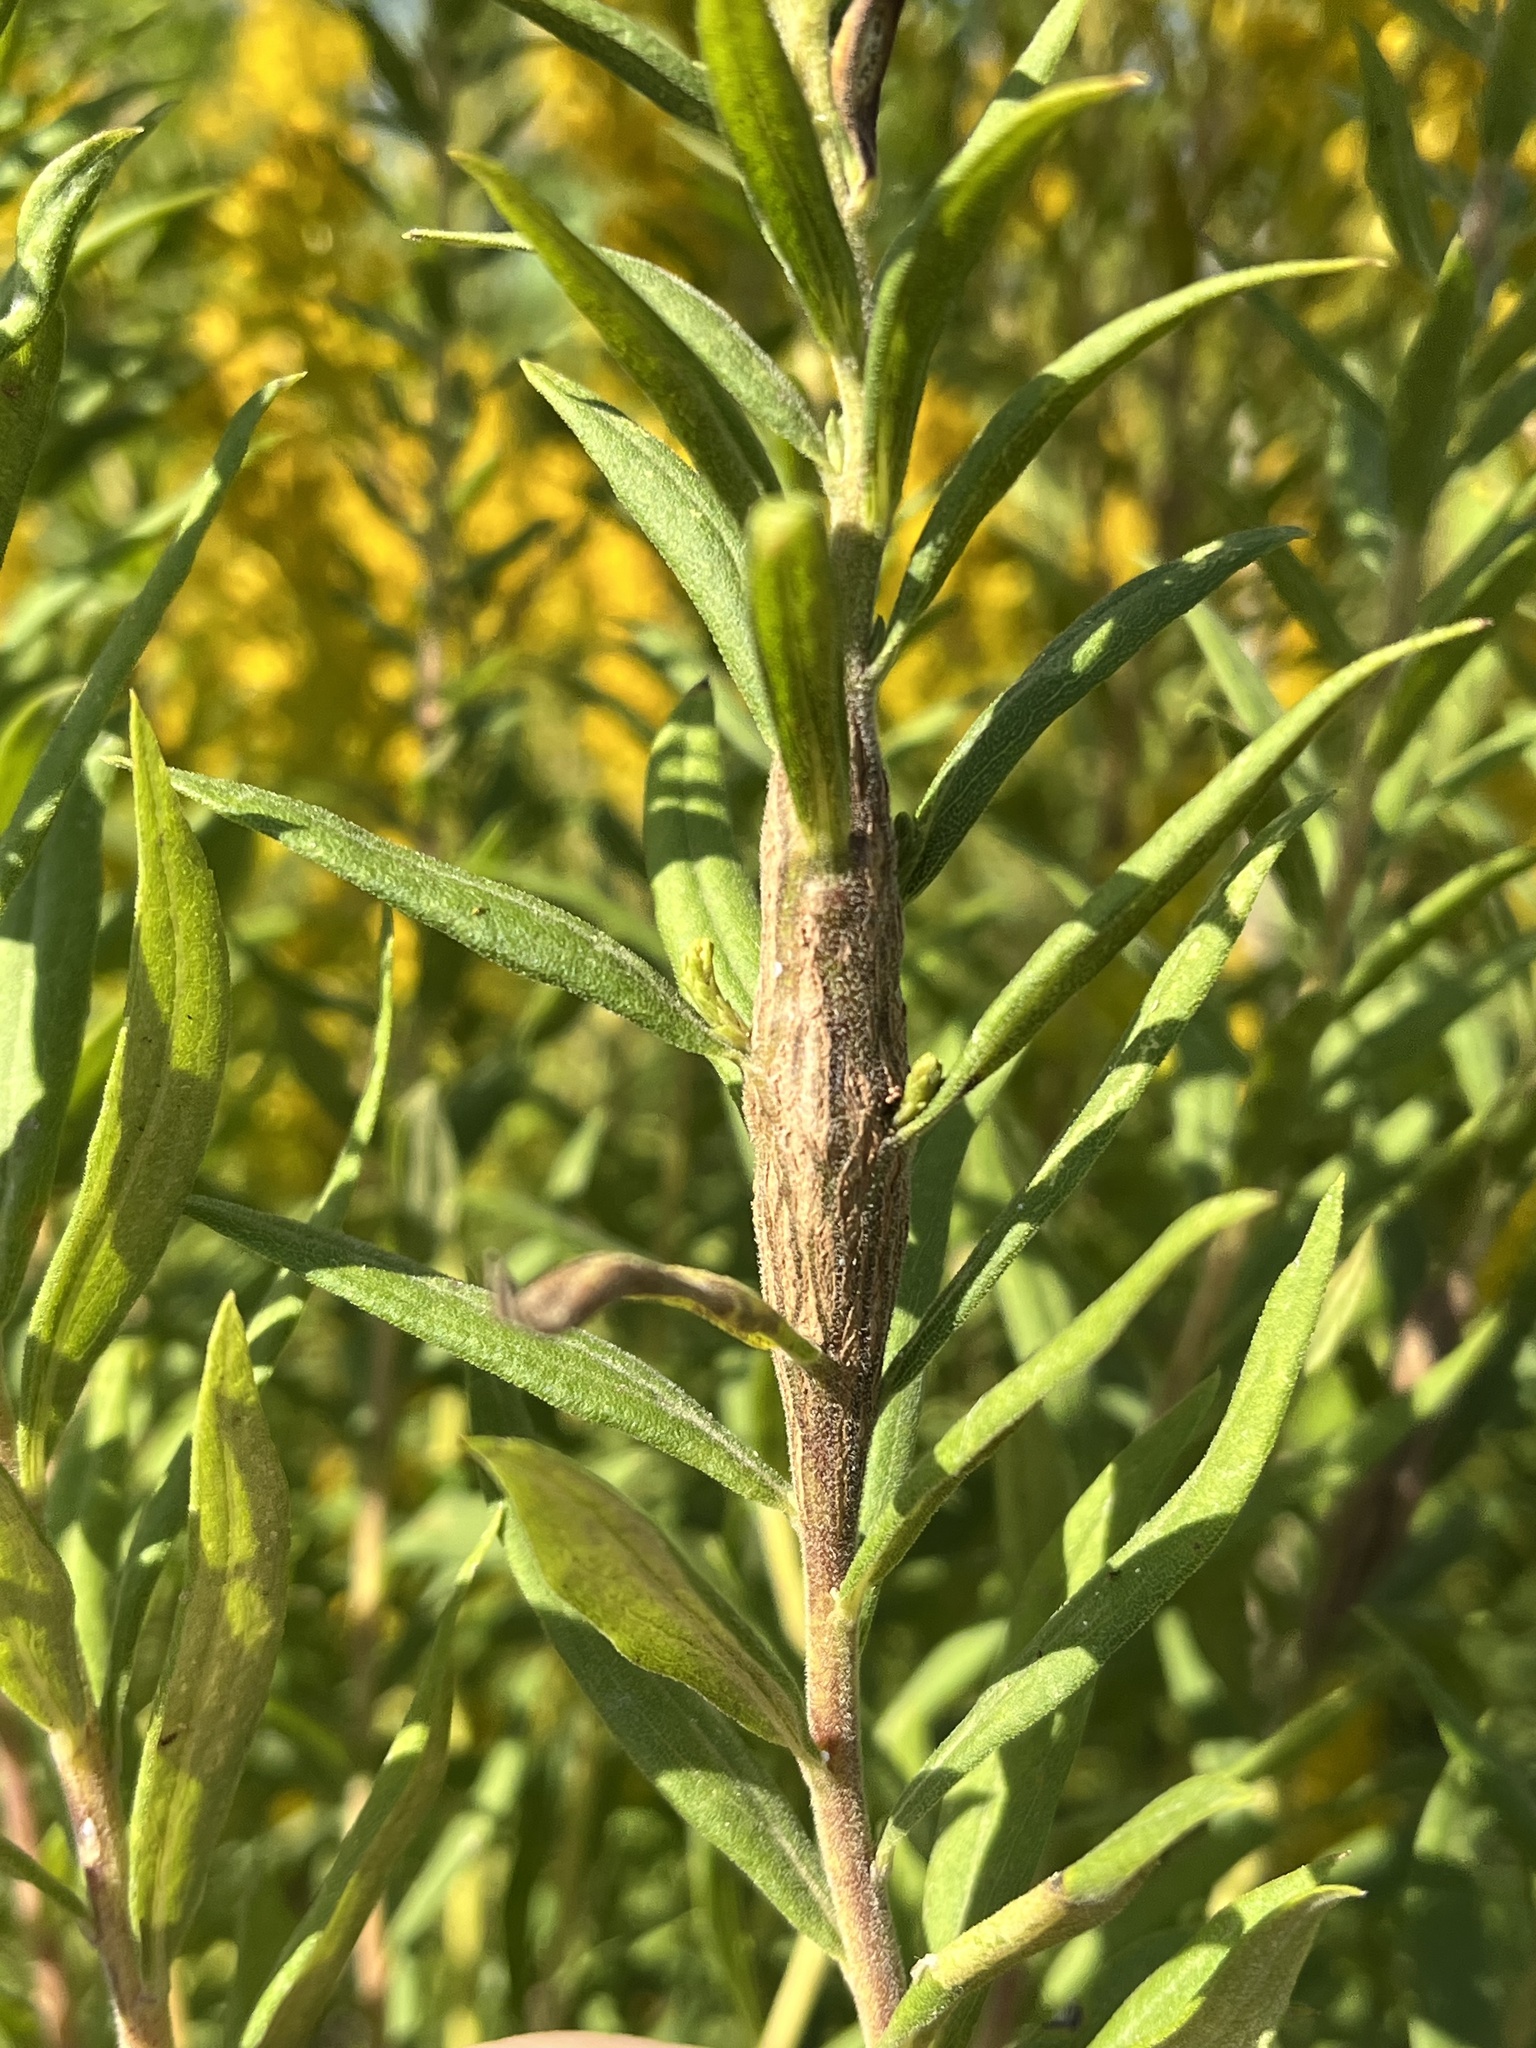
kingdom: Animalia
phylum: Arthropoda
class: Insecta
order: Lepidoptera
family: Tortricidae
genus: Epiblema
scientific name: Epiblema scudderiana
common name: Goldenrod gall moth
